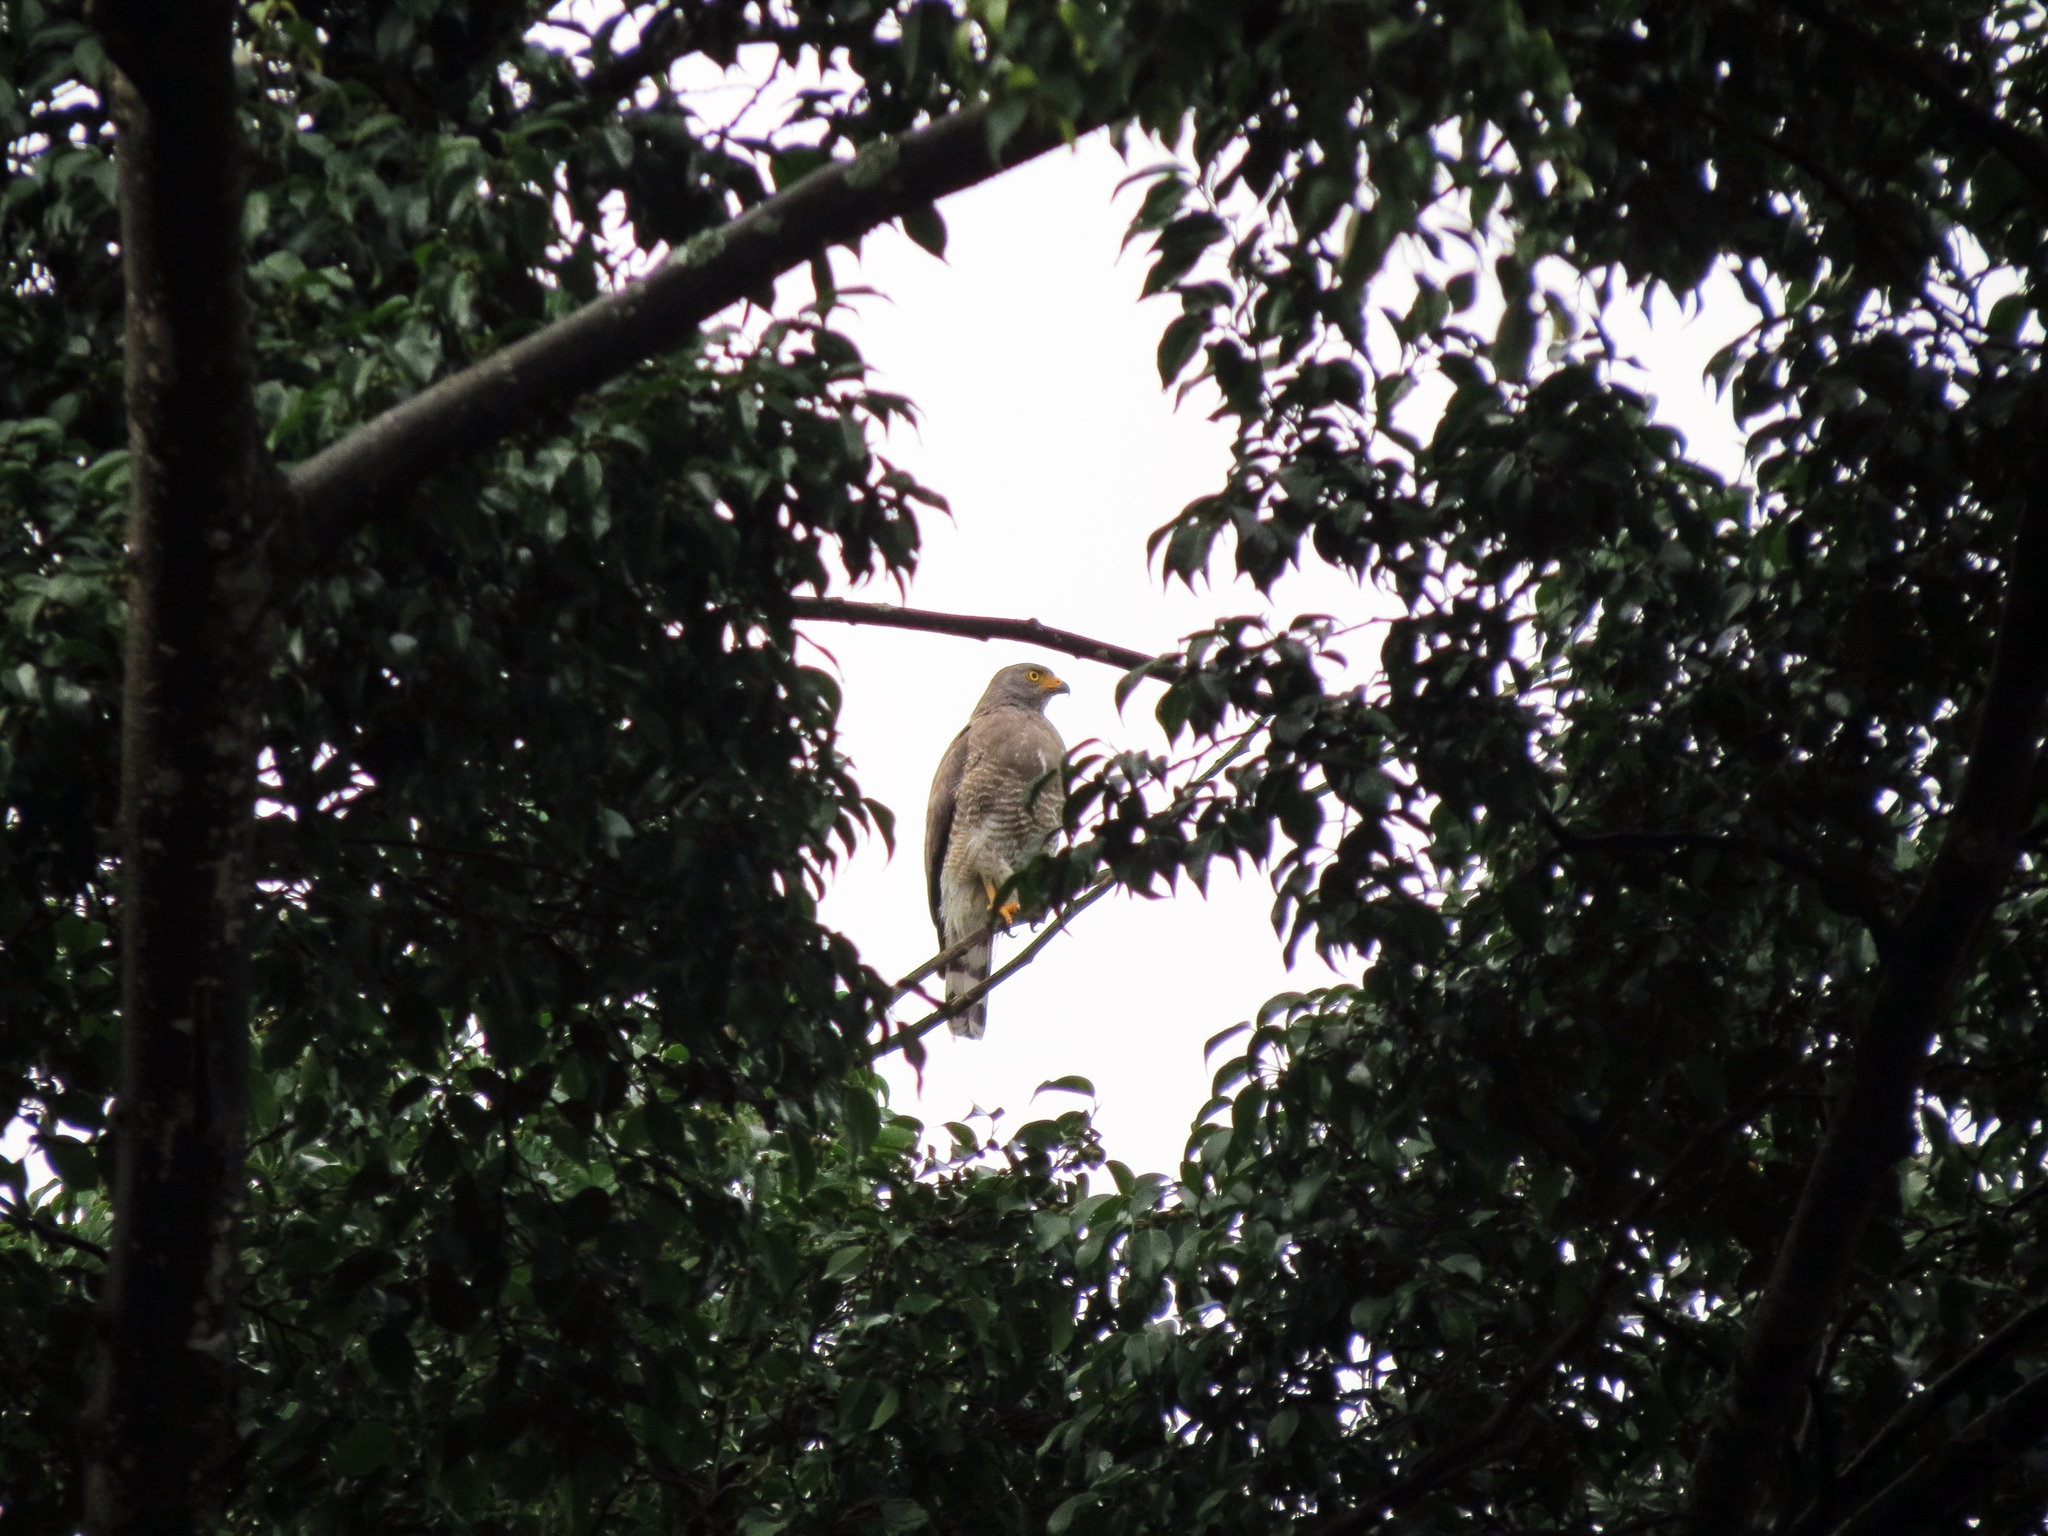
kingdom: Animalia
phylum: Chordata
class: Aves
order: Accipitriformes
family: Accipitridae
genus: Rupornis
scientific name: Rupornis magnirostris
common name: Roadside hawk
